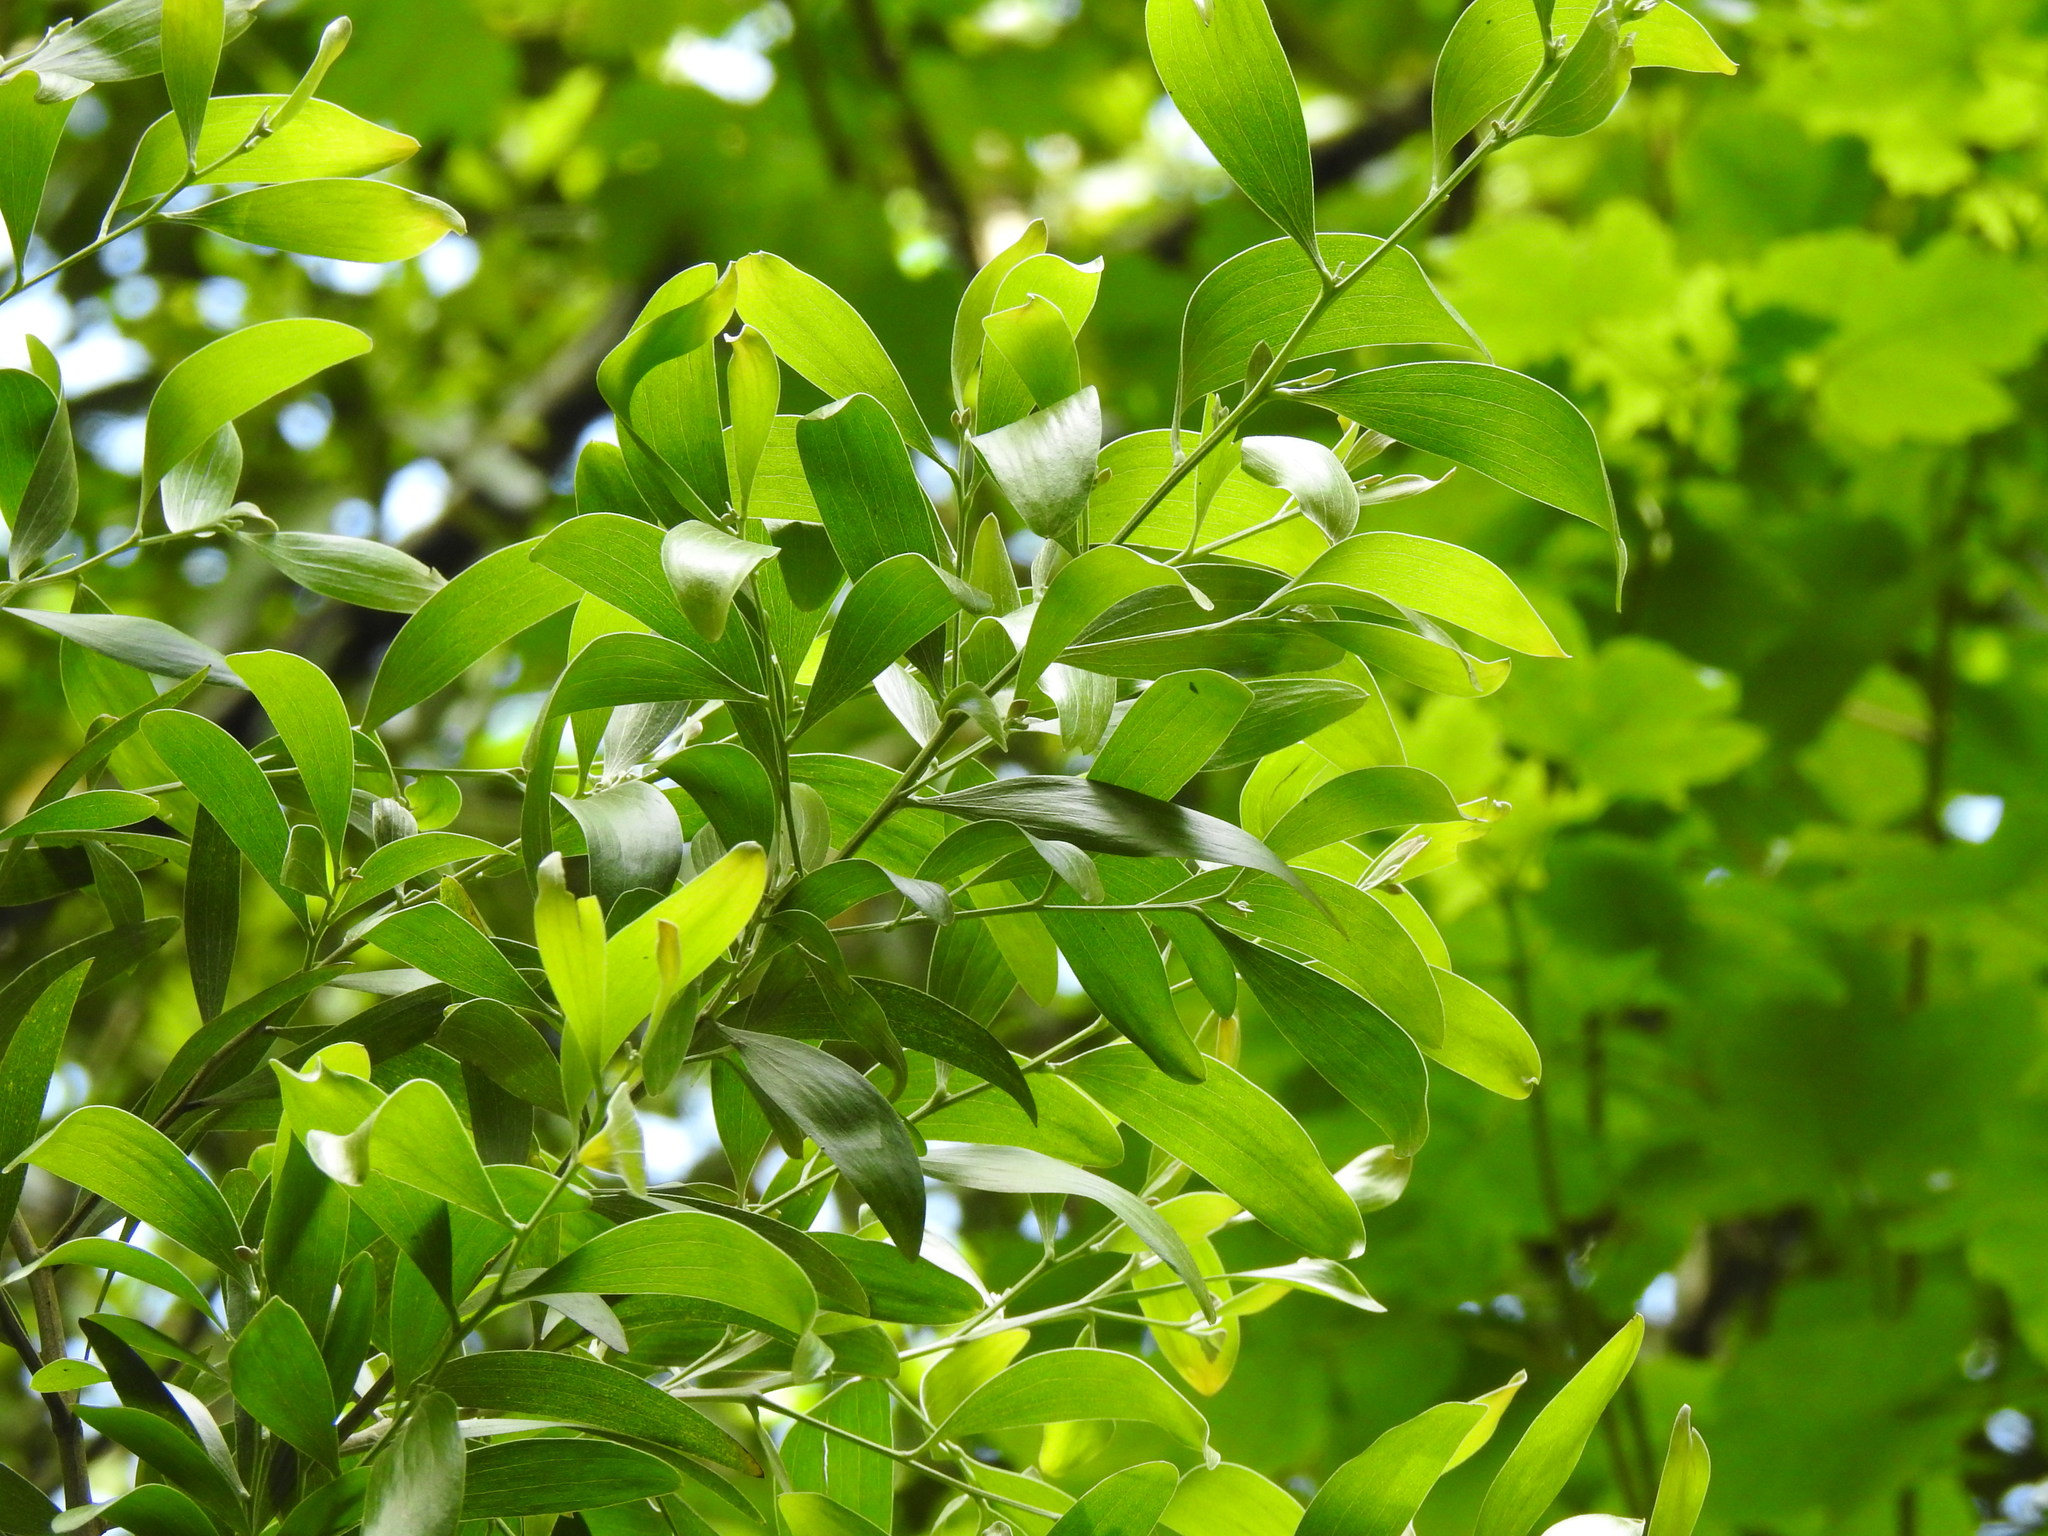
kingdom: Plantae
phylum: Tracheophyta
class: Magnoliopsida
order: Fabales
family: Fabaceae
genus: Acacia
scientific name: Acacia melanoxylon
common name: Blackwood
